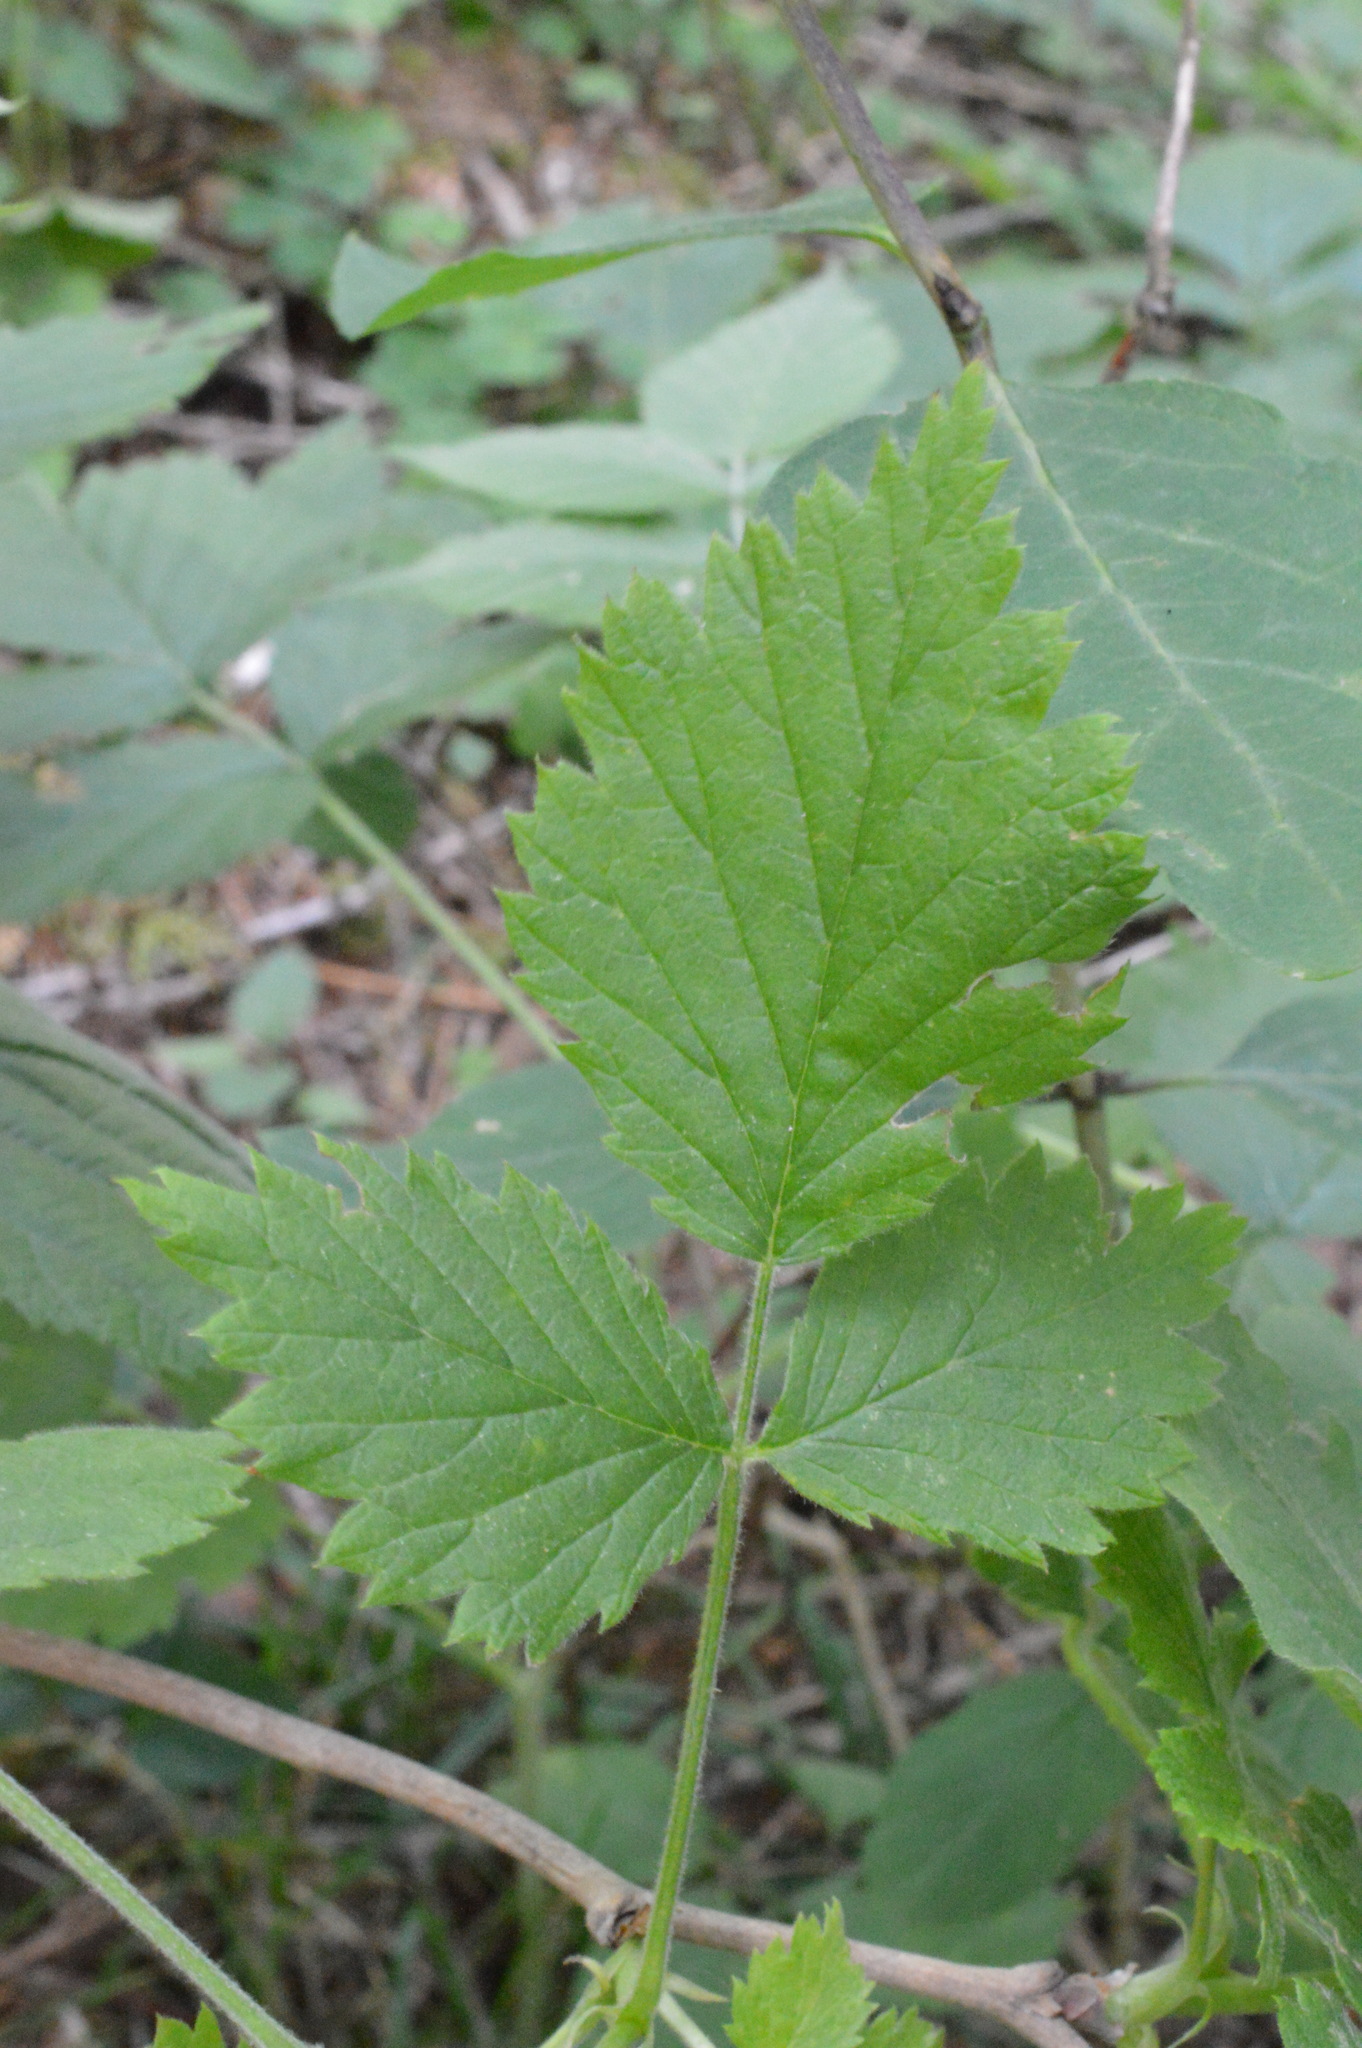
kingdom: Plantae
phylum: Tracheophyta
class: Magnoliopsida
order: Rosales
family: Rosaceae
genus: Rubus
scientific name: Rubus idaeus
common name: Raspberry
